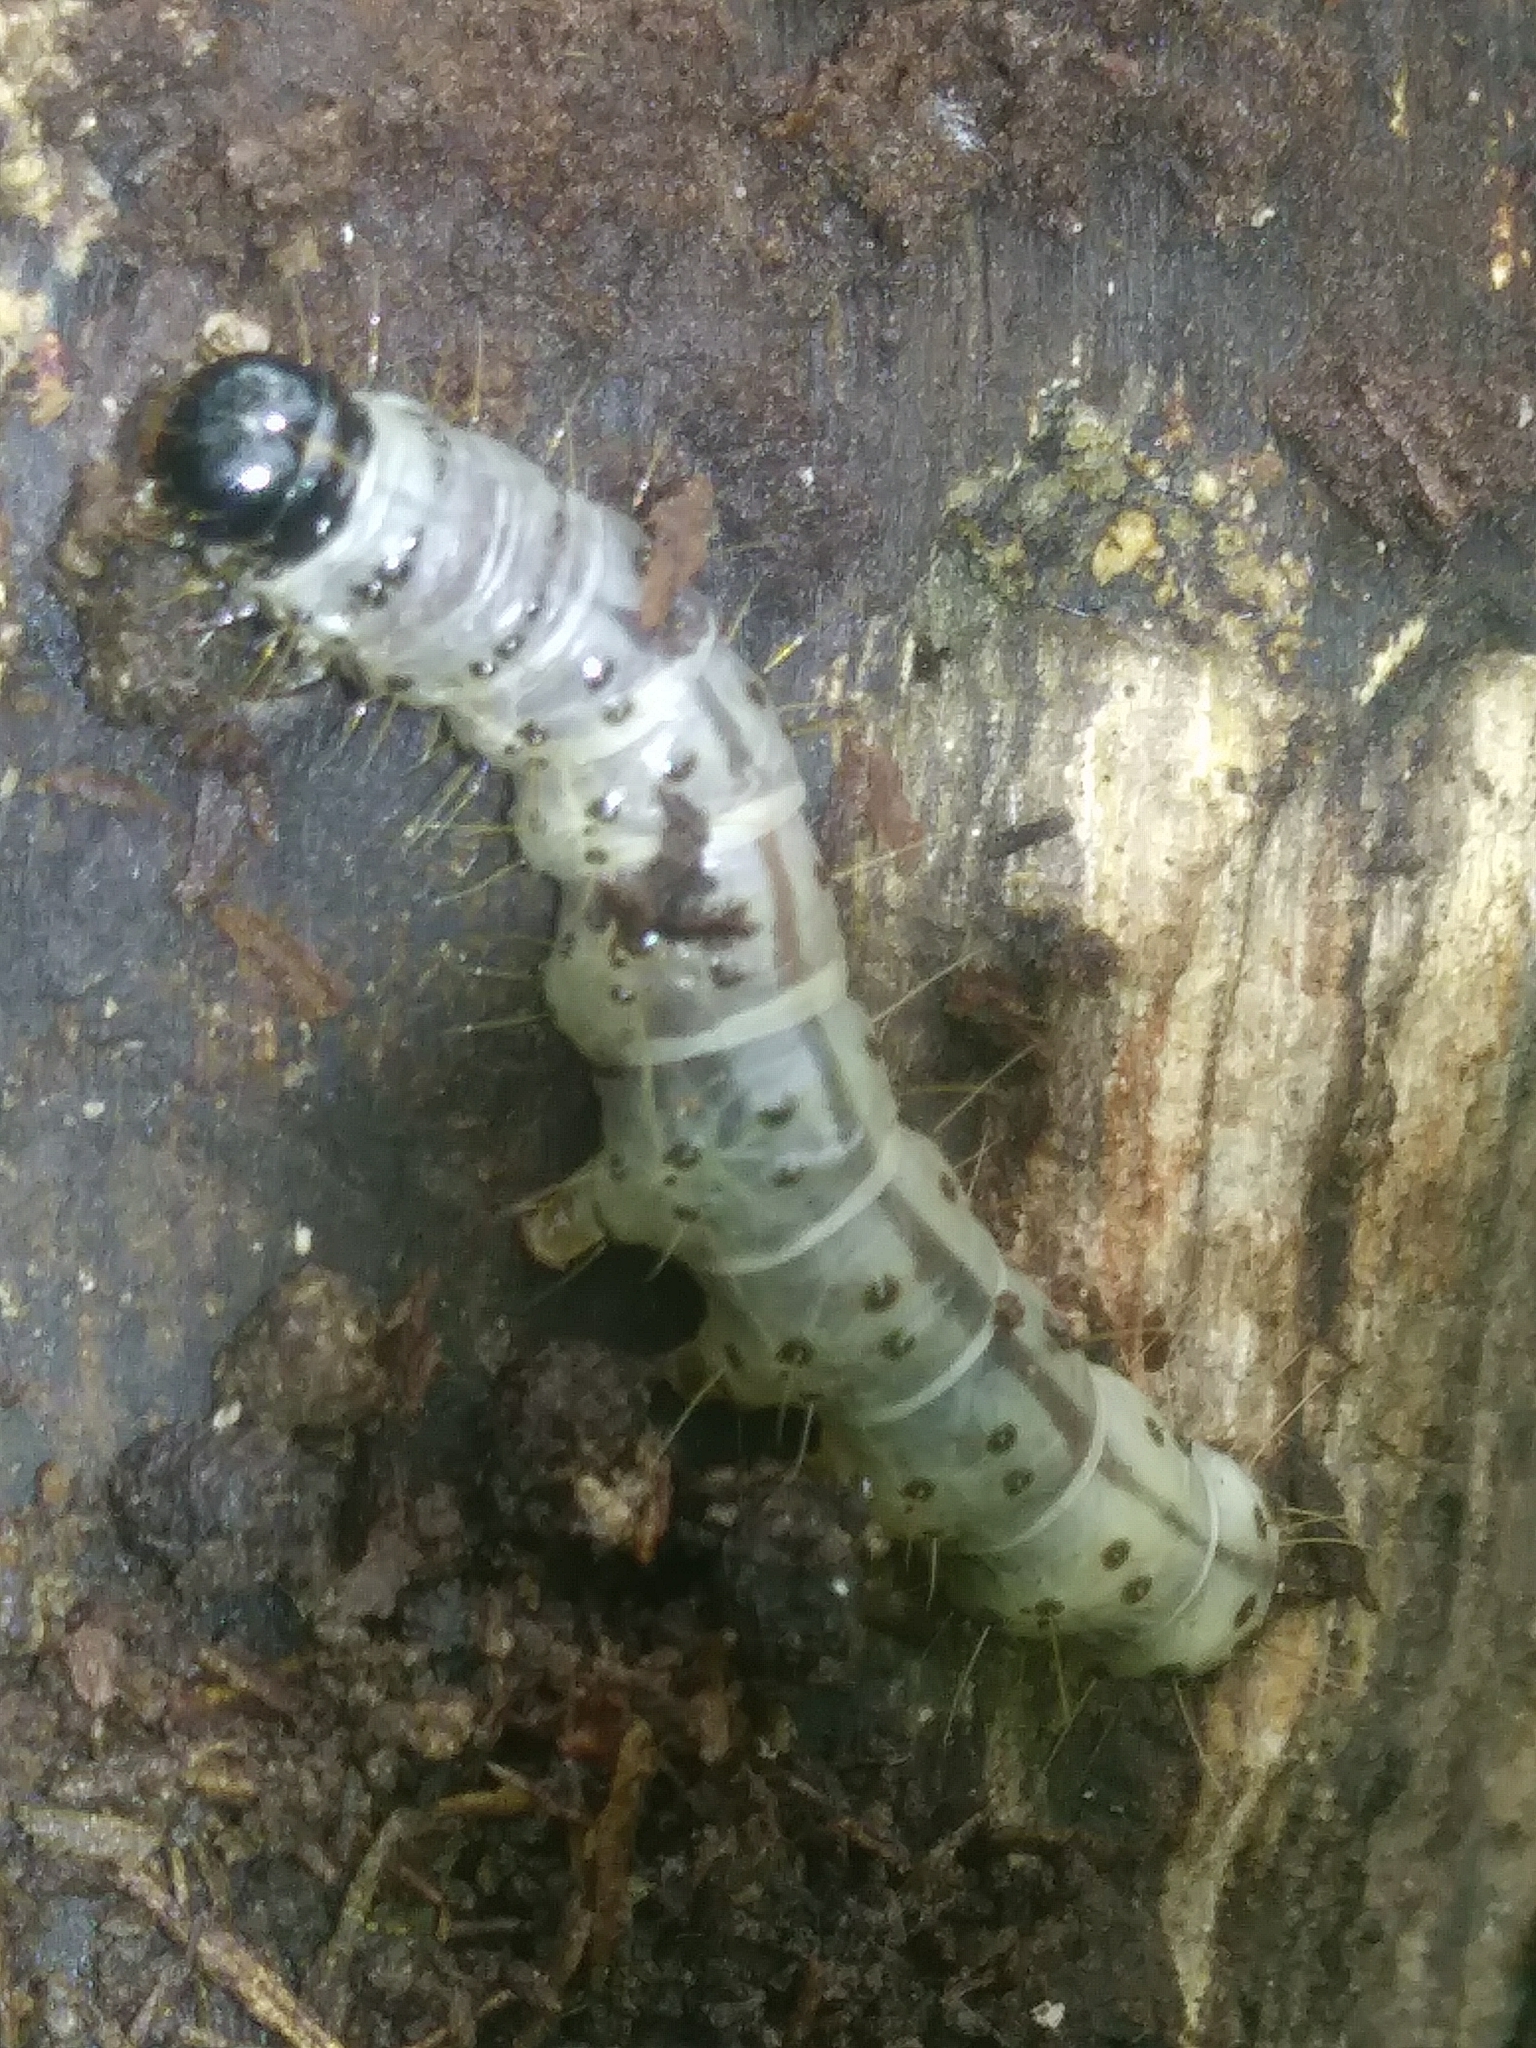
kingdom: Animalia
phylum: Arthropoda
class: Insecta
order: Lepidoptera
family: Erebidae
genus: Scolecocampa
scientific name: Scolecocampa liburna
